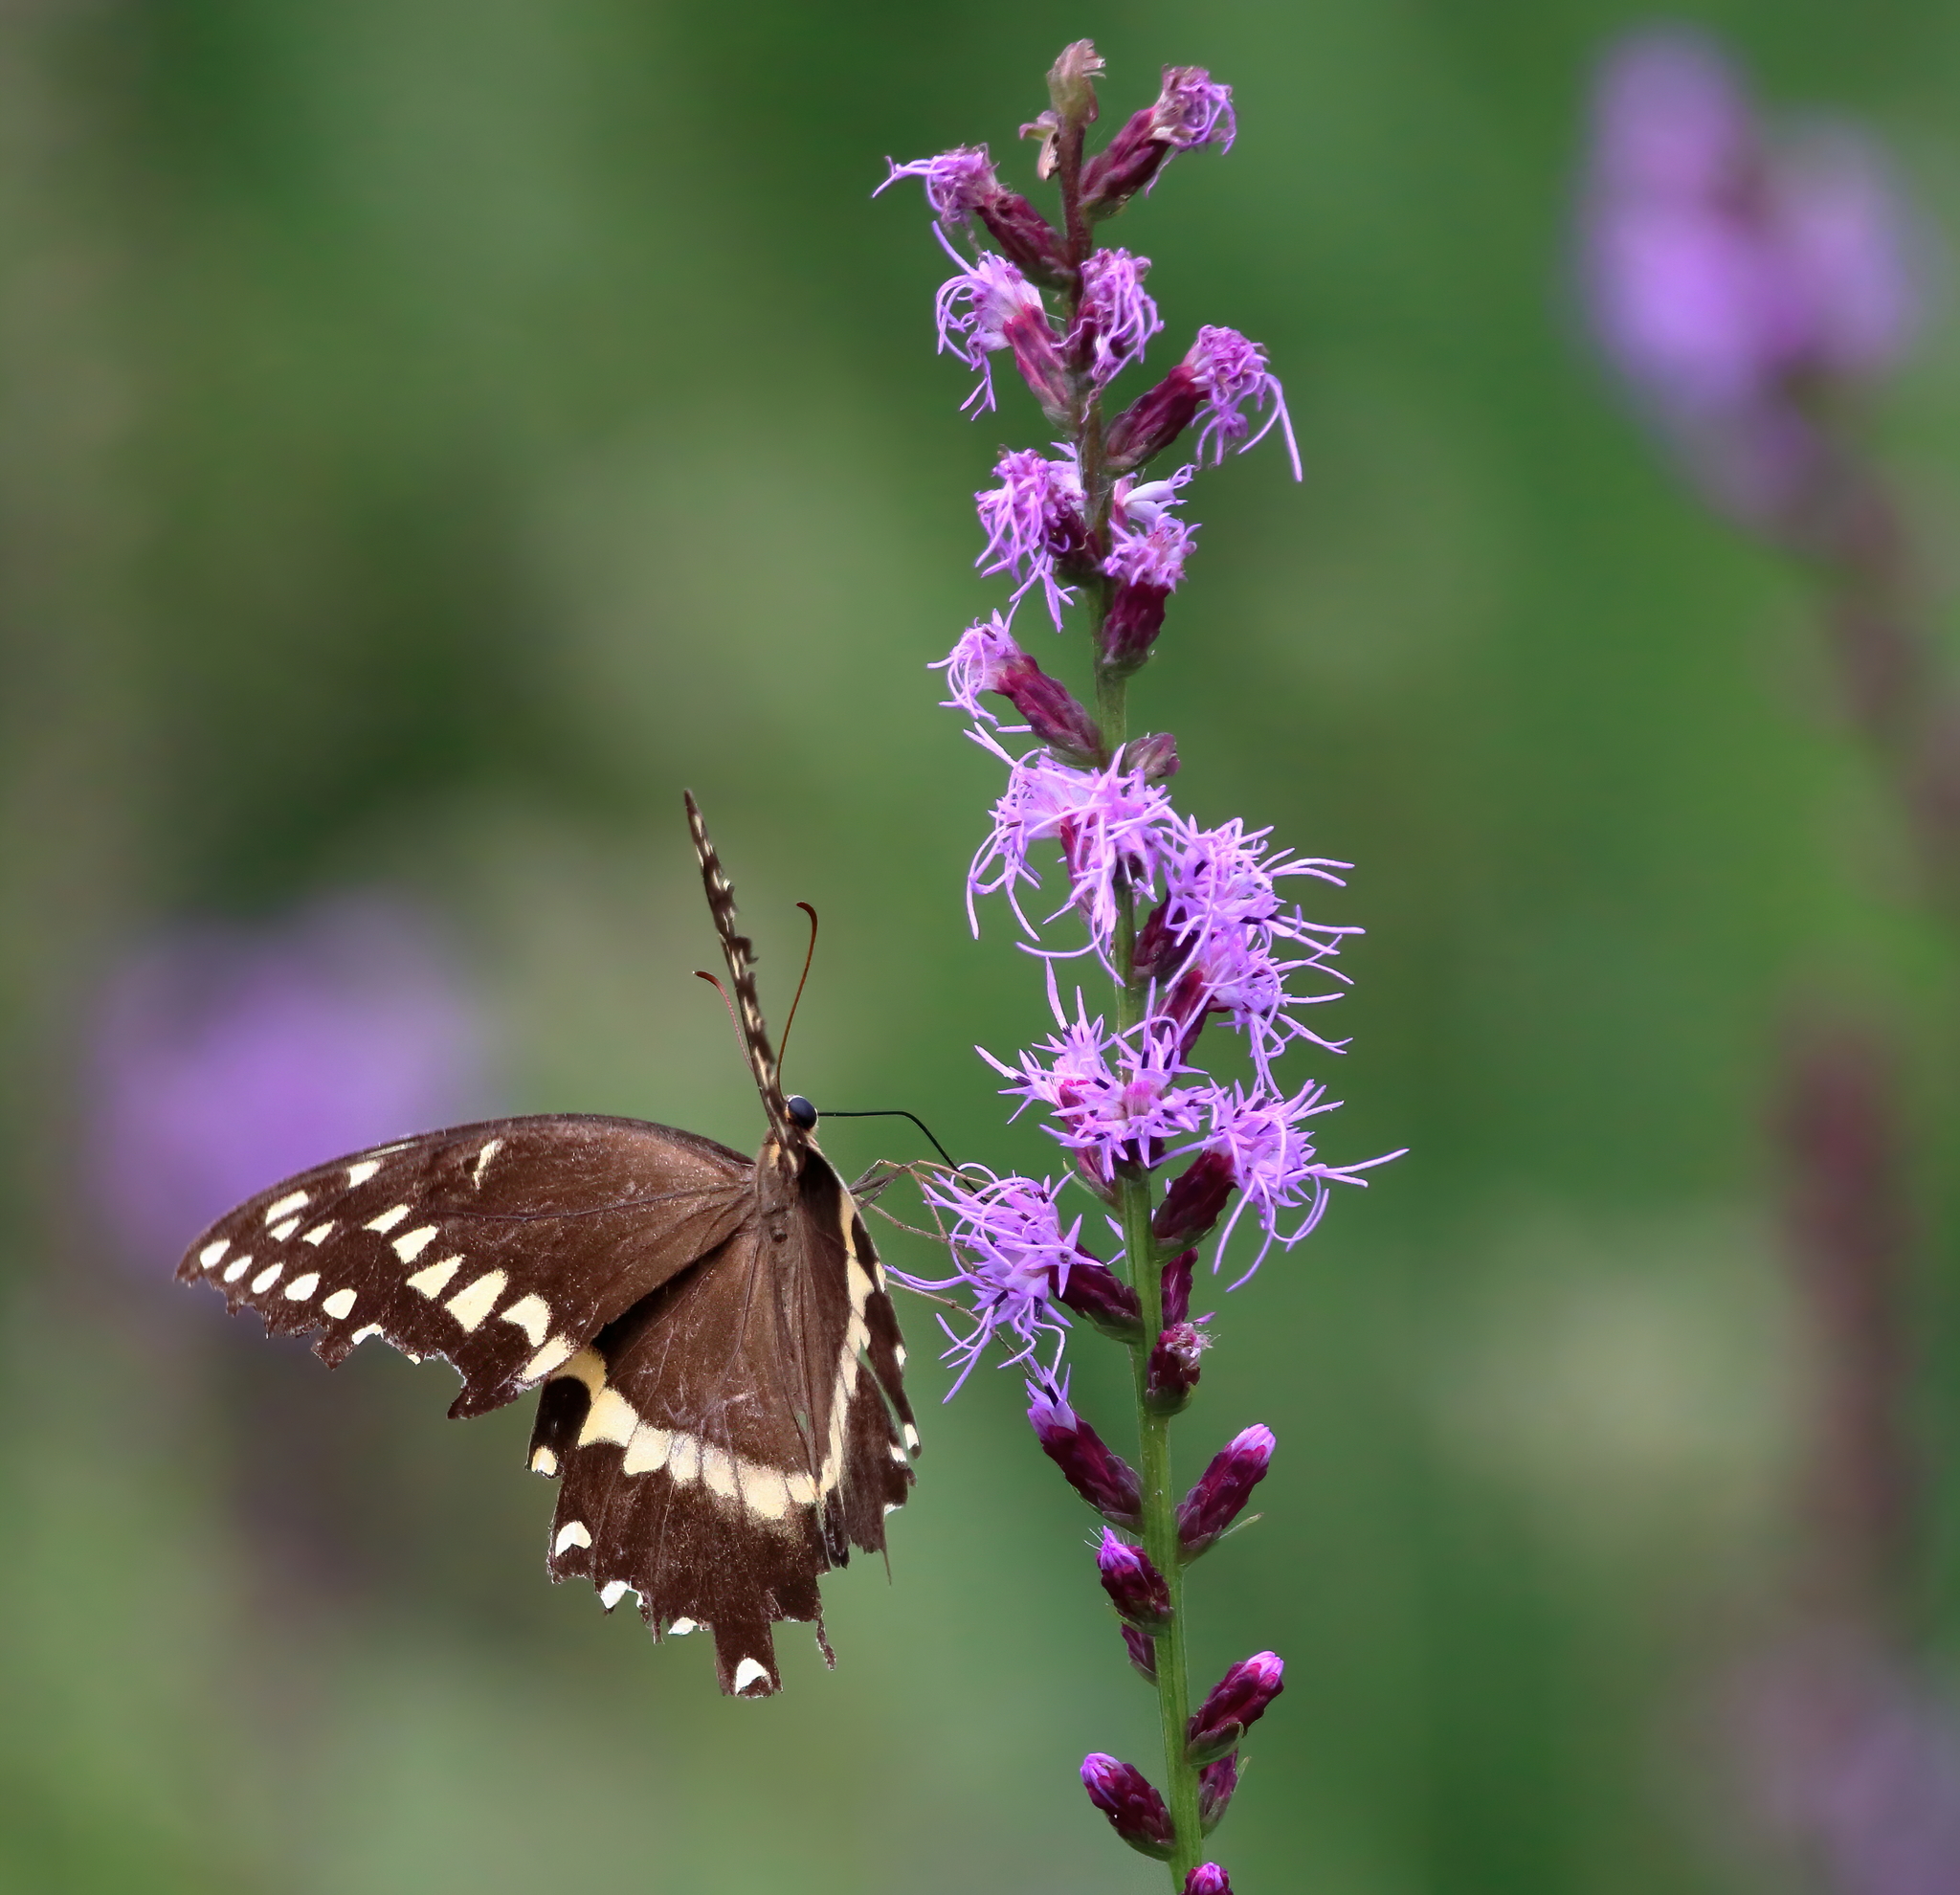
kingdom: Animalia
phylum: Arthropoda
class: Insecta
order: Lepidoptera
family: Papilionidae
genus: Papilio
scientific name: Papilio palamedes
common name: Palamedes swallowtail
